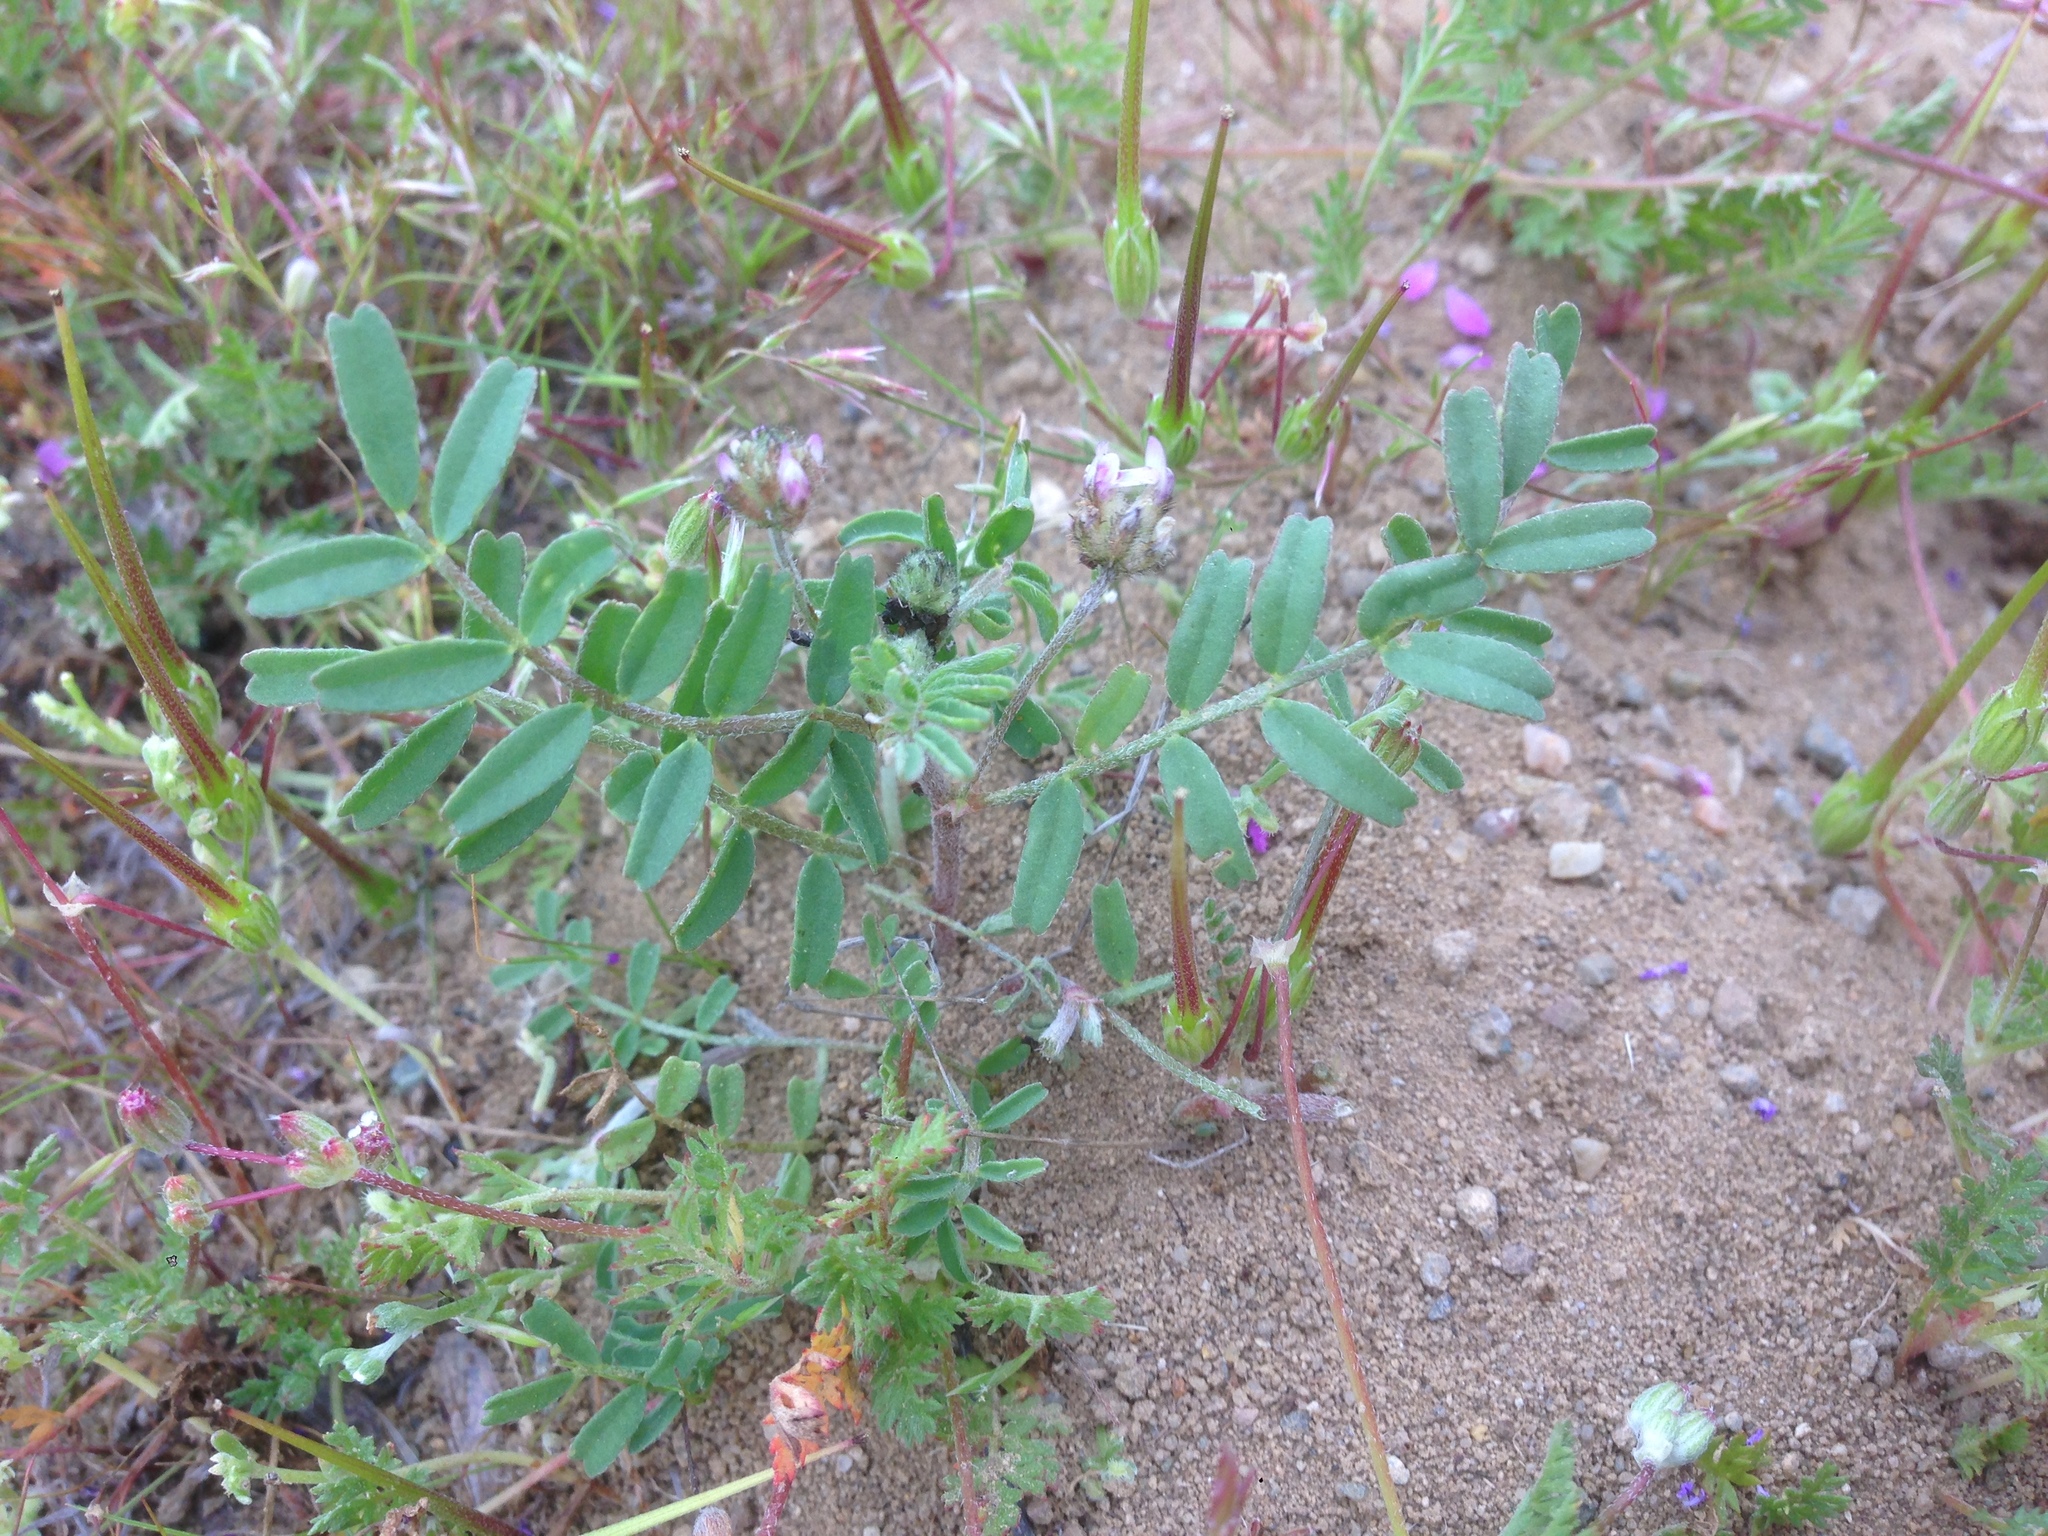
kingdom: Plantae
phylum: Tracheophyta
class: Magnoliopsida
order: Fabales
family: Fabaceae
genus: Astragalus
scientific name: Astragalus didymocarpus
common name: Dwarf white milkvetch
